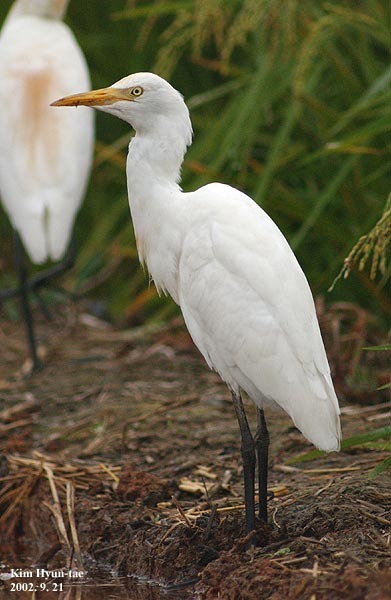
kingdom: Animalia
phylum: Chordata
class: Aves
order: Pelecaniformes
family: Ardeidae
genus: Bubulcus
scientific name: Bubulcus coromandus
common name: Eastern cattle egret
